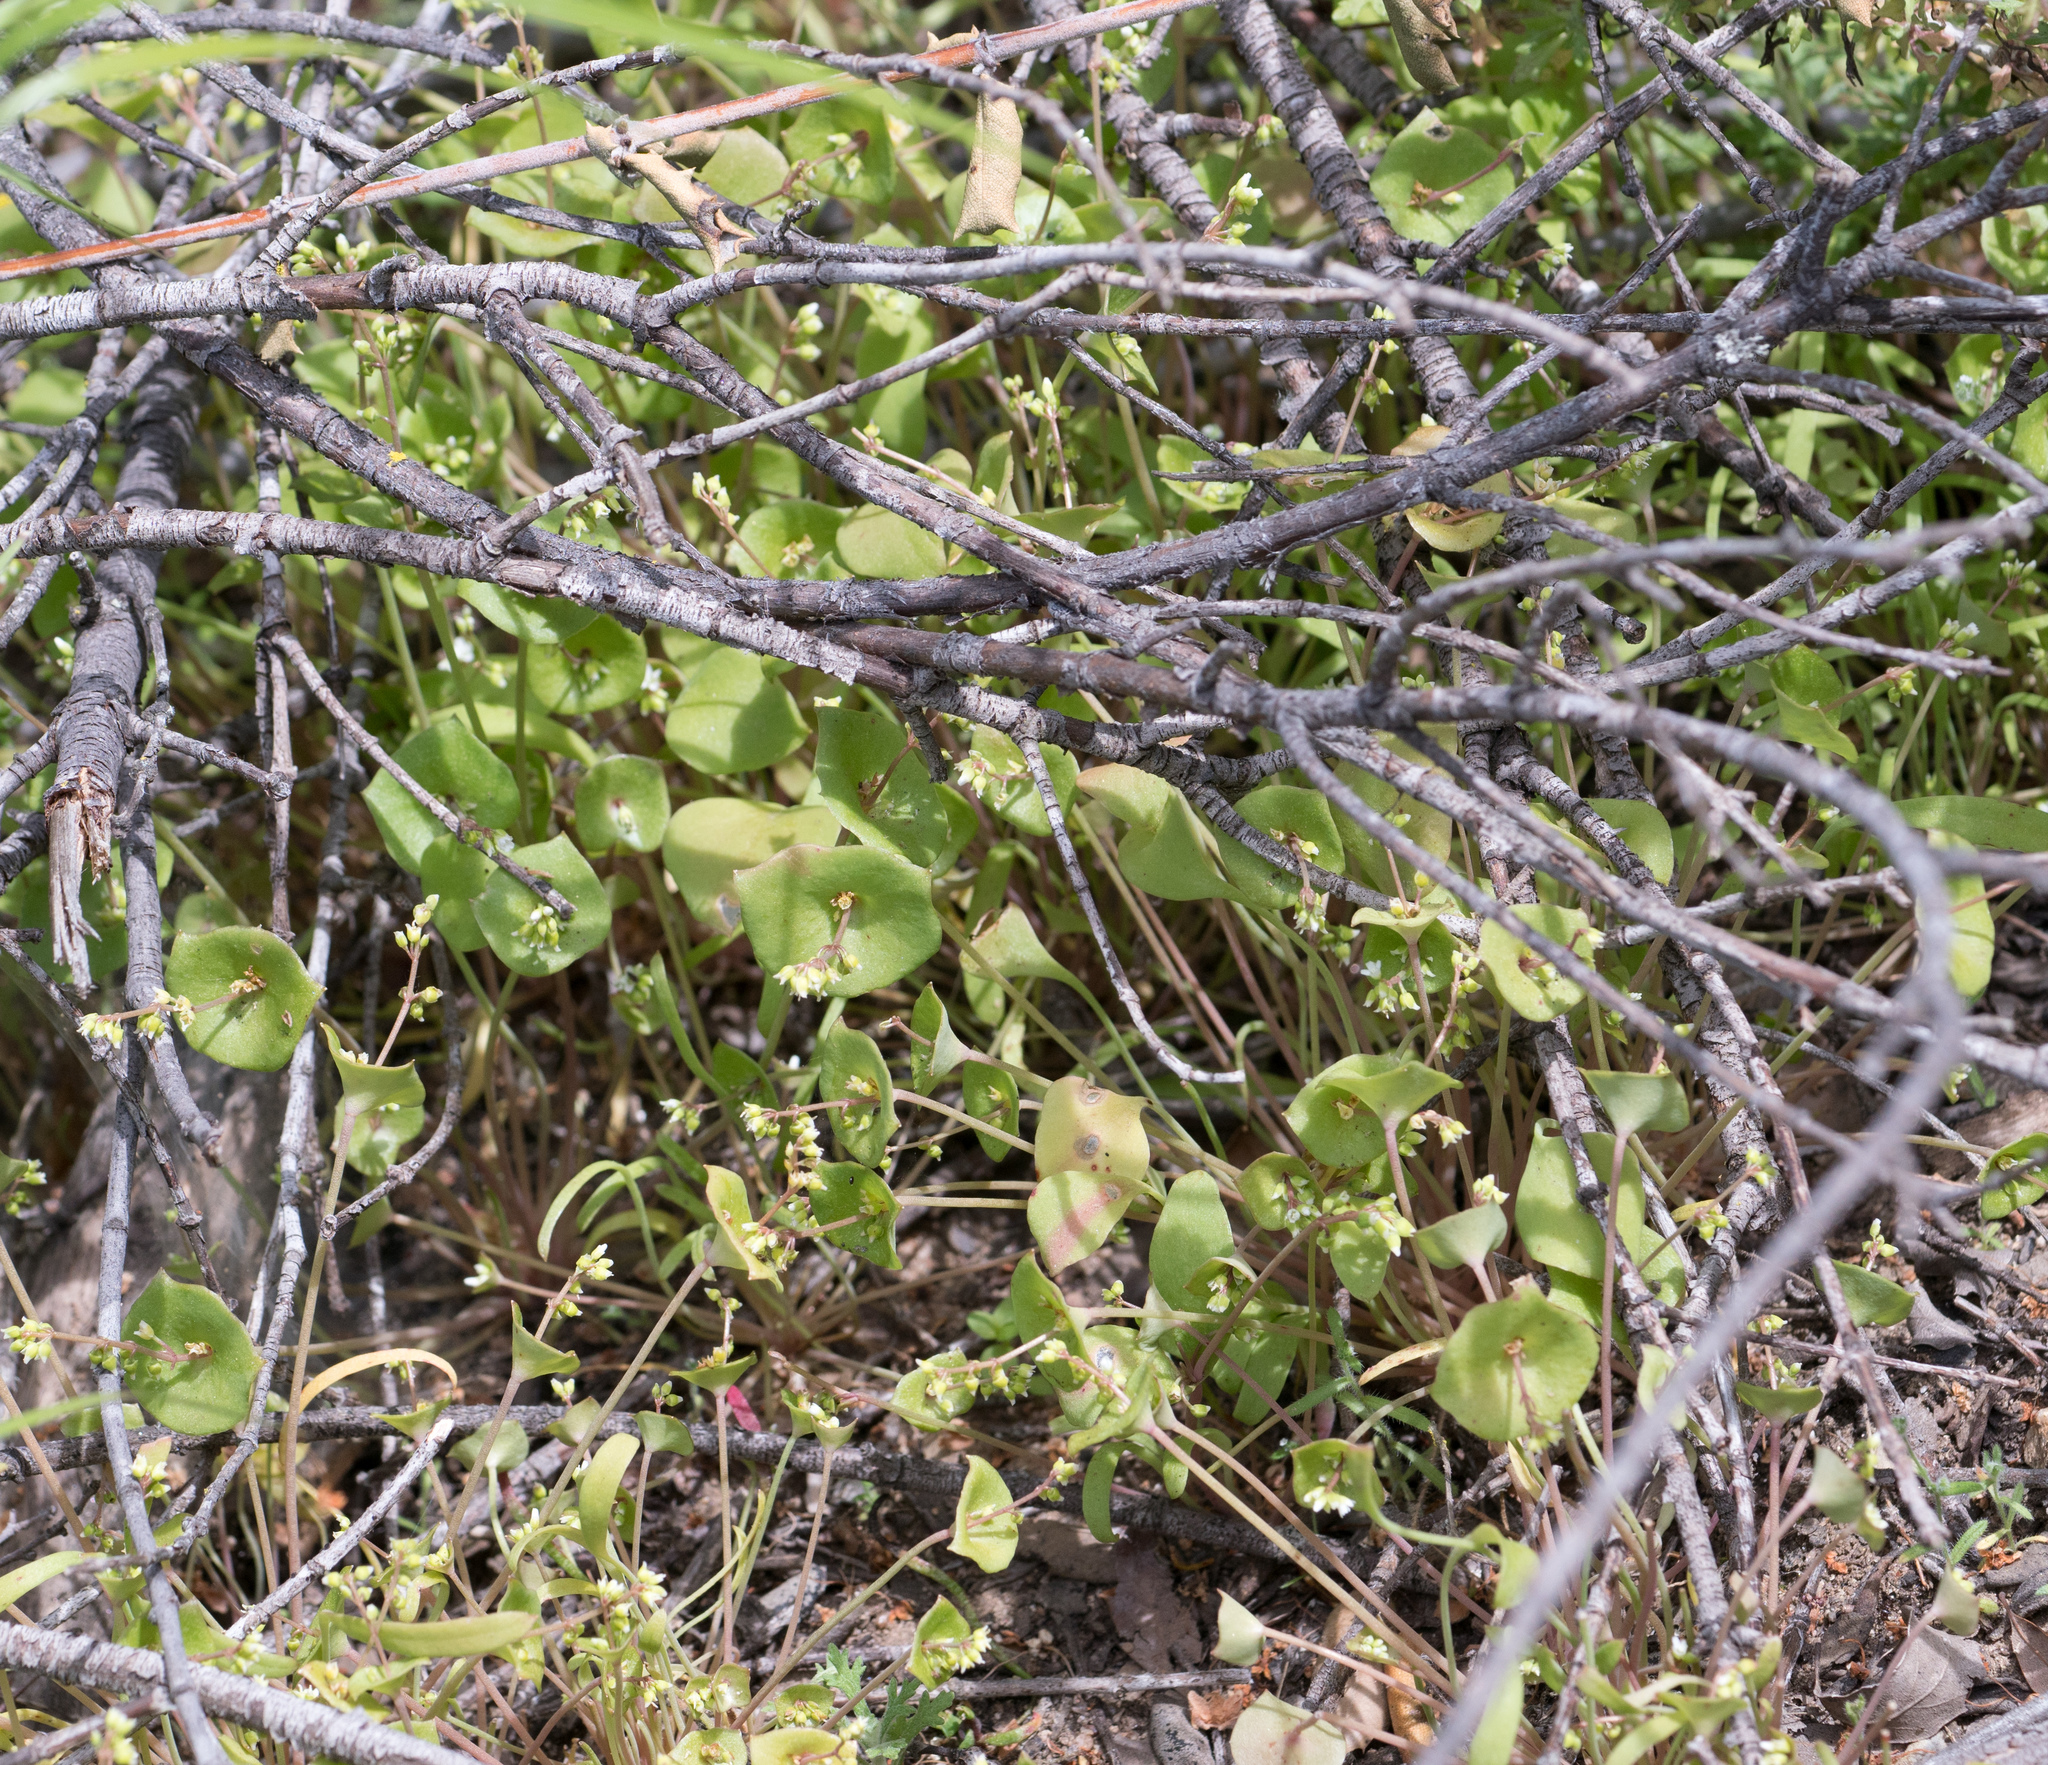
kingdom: Plantae
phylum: Tracheophyta
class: Magnoliopsida
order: Caryophyllales
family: Montiaceae
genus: Claytonia
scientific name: Claytonia perfoliata
